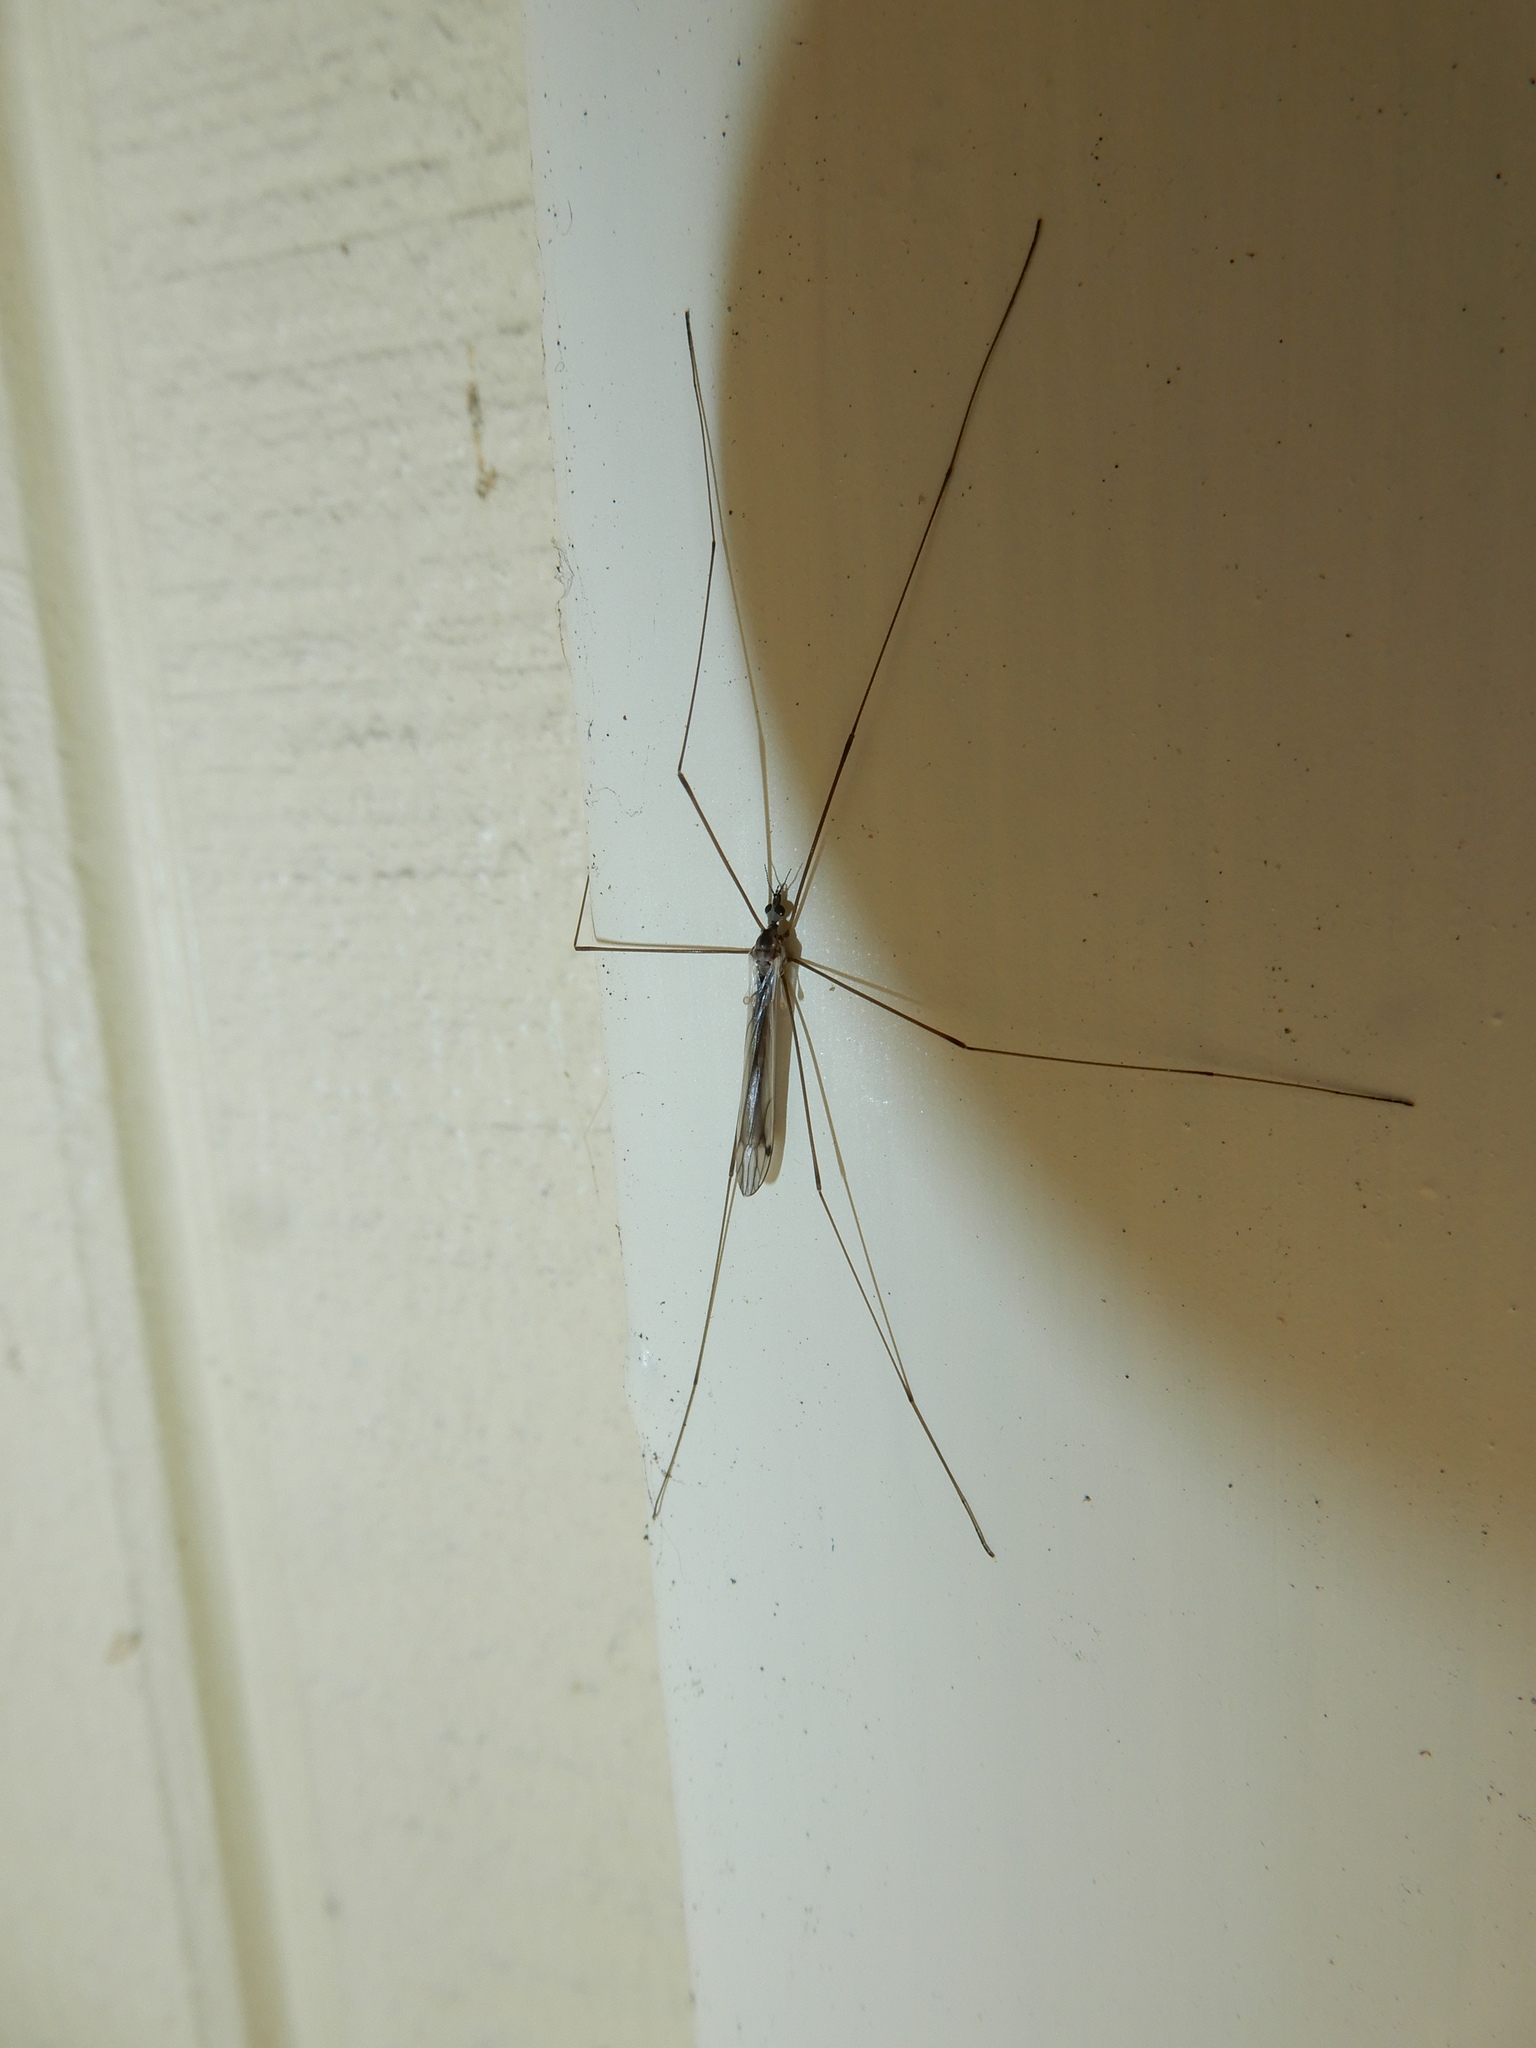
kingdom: Animalia
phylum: Arthropoda
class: Insecta
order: Diptera
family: Limoniidae
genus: Dicranomyia
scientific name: Dicranomyia aegrotans
